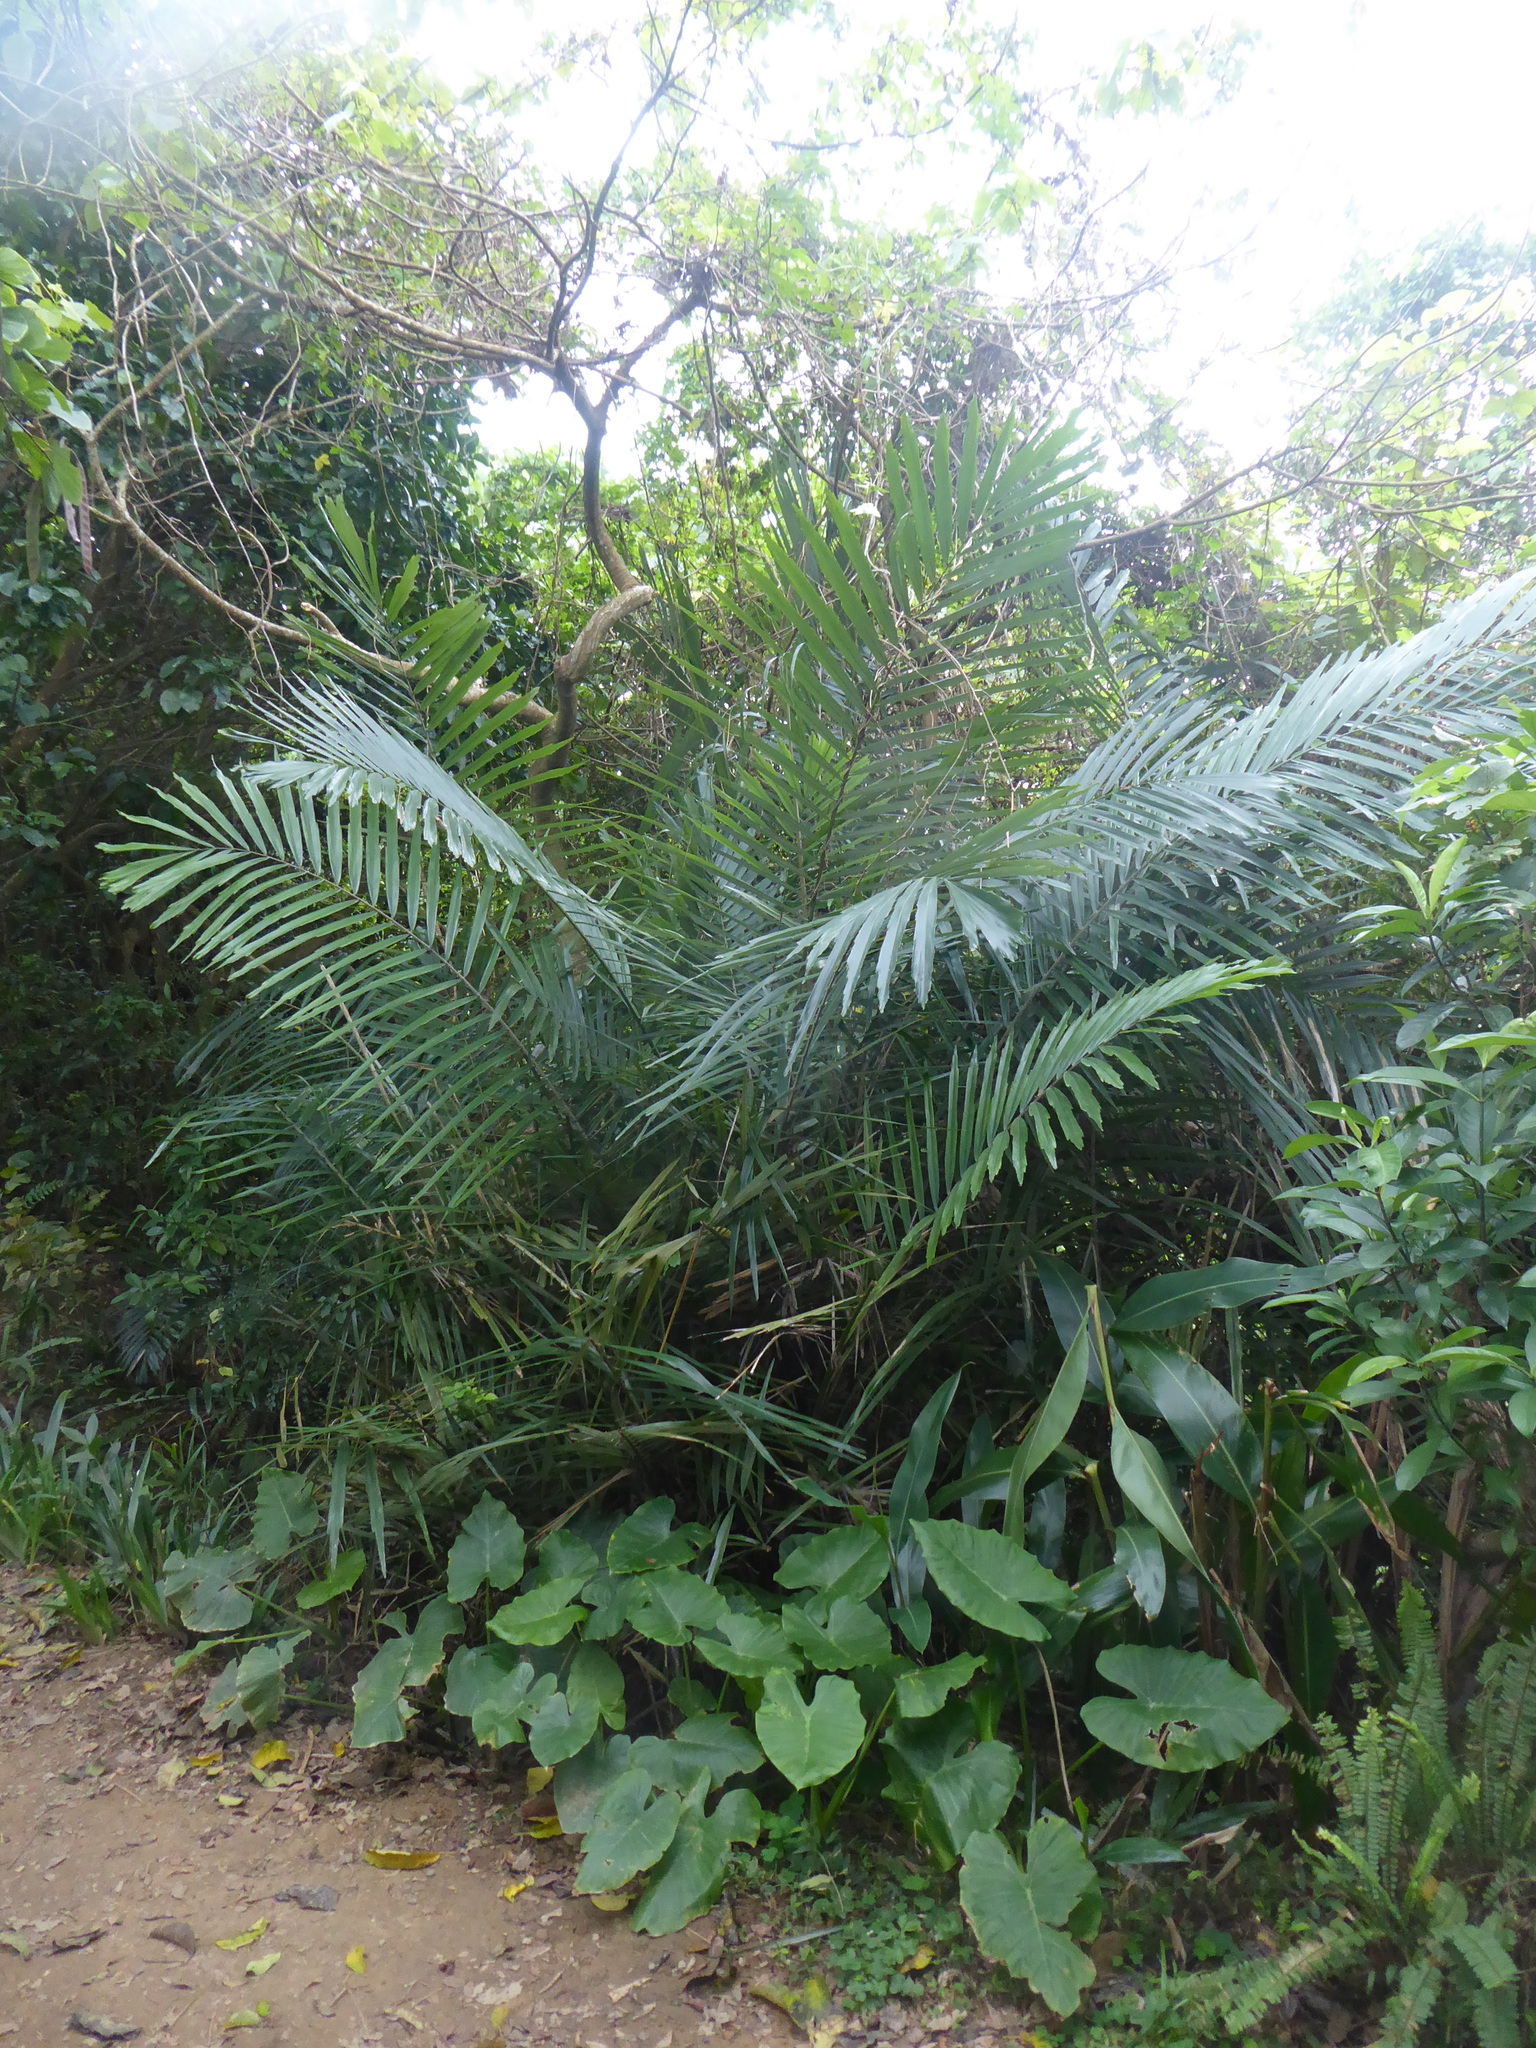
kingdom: Plantae
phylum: Tracheophyta
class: Liliopsida
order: Arecales
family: Arecaceae
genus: Arenga
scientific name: Arenga engleri
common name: Formosan sugar palm
